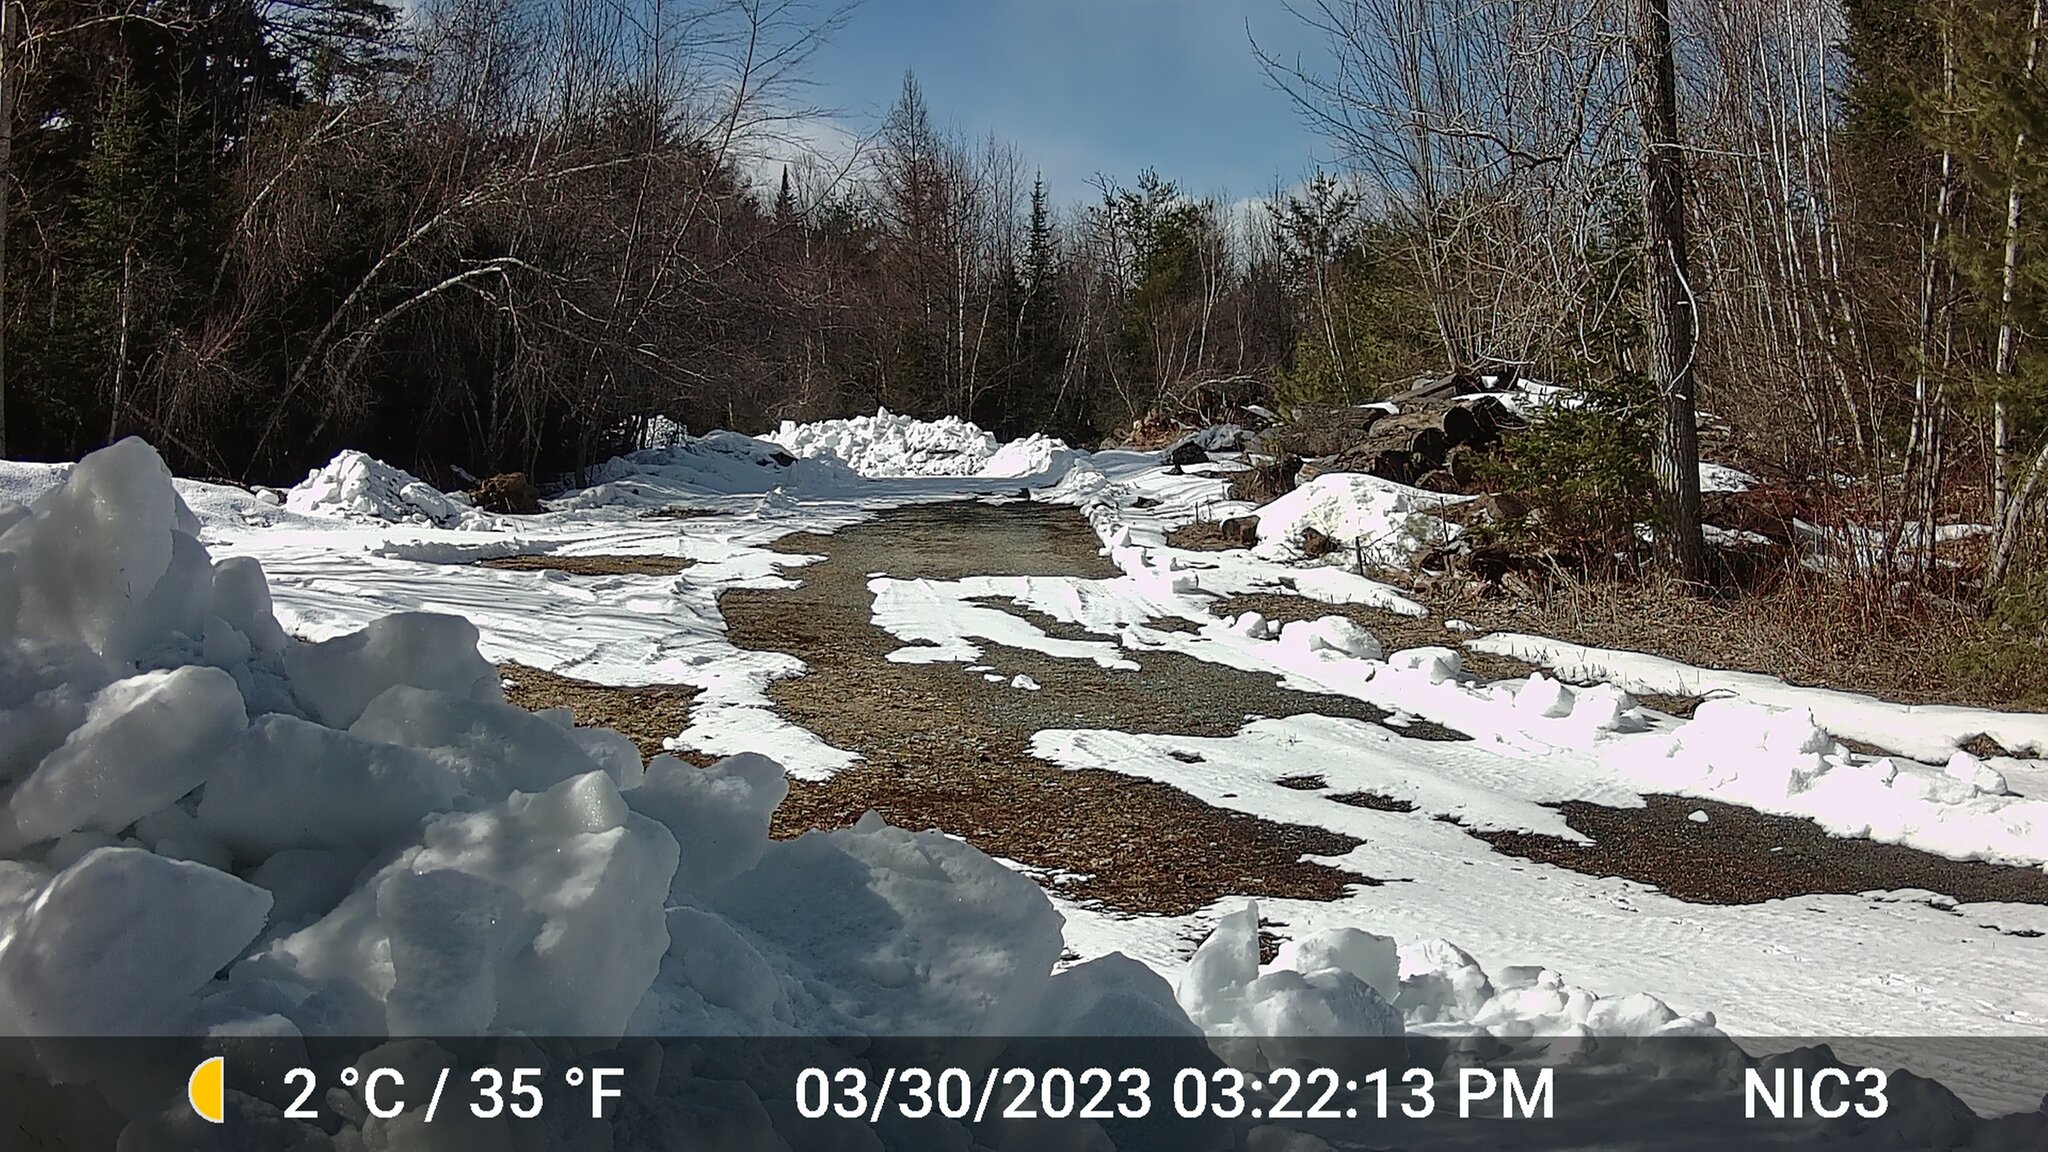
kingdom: Animalia
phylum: Chordata
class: Mammalia
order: Carnivora
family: Mustelidae
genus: Pekania
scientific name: Pekania pennanti
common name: Fisher
